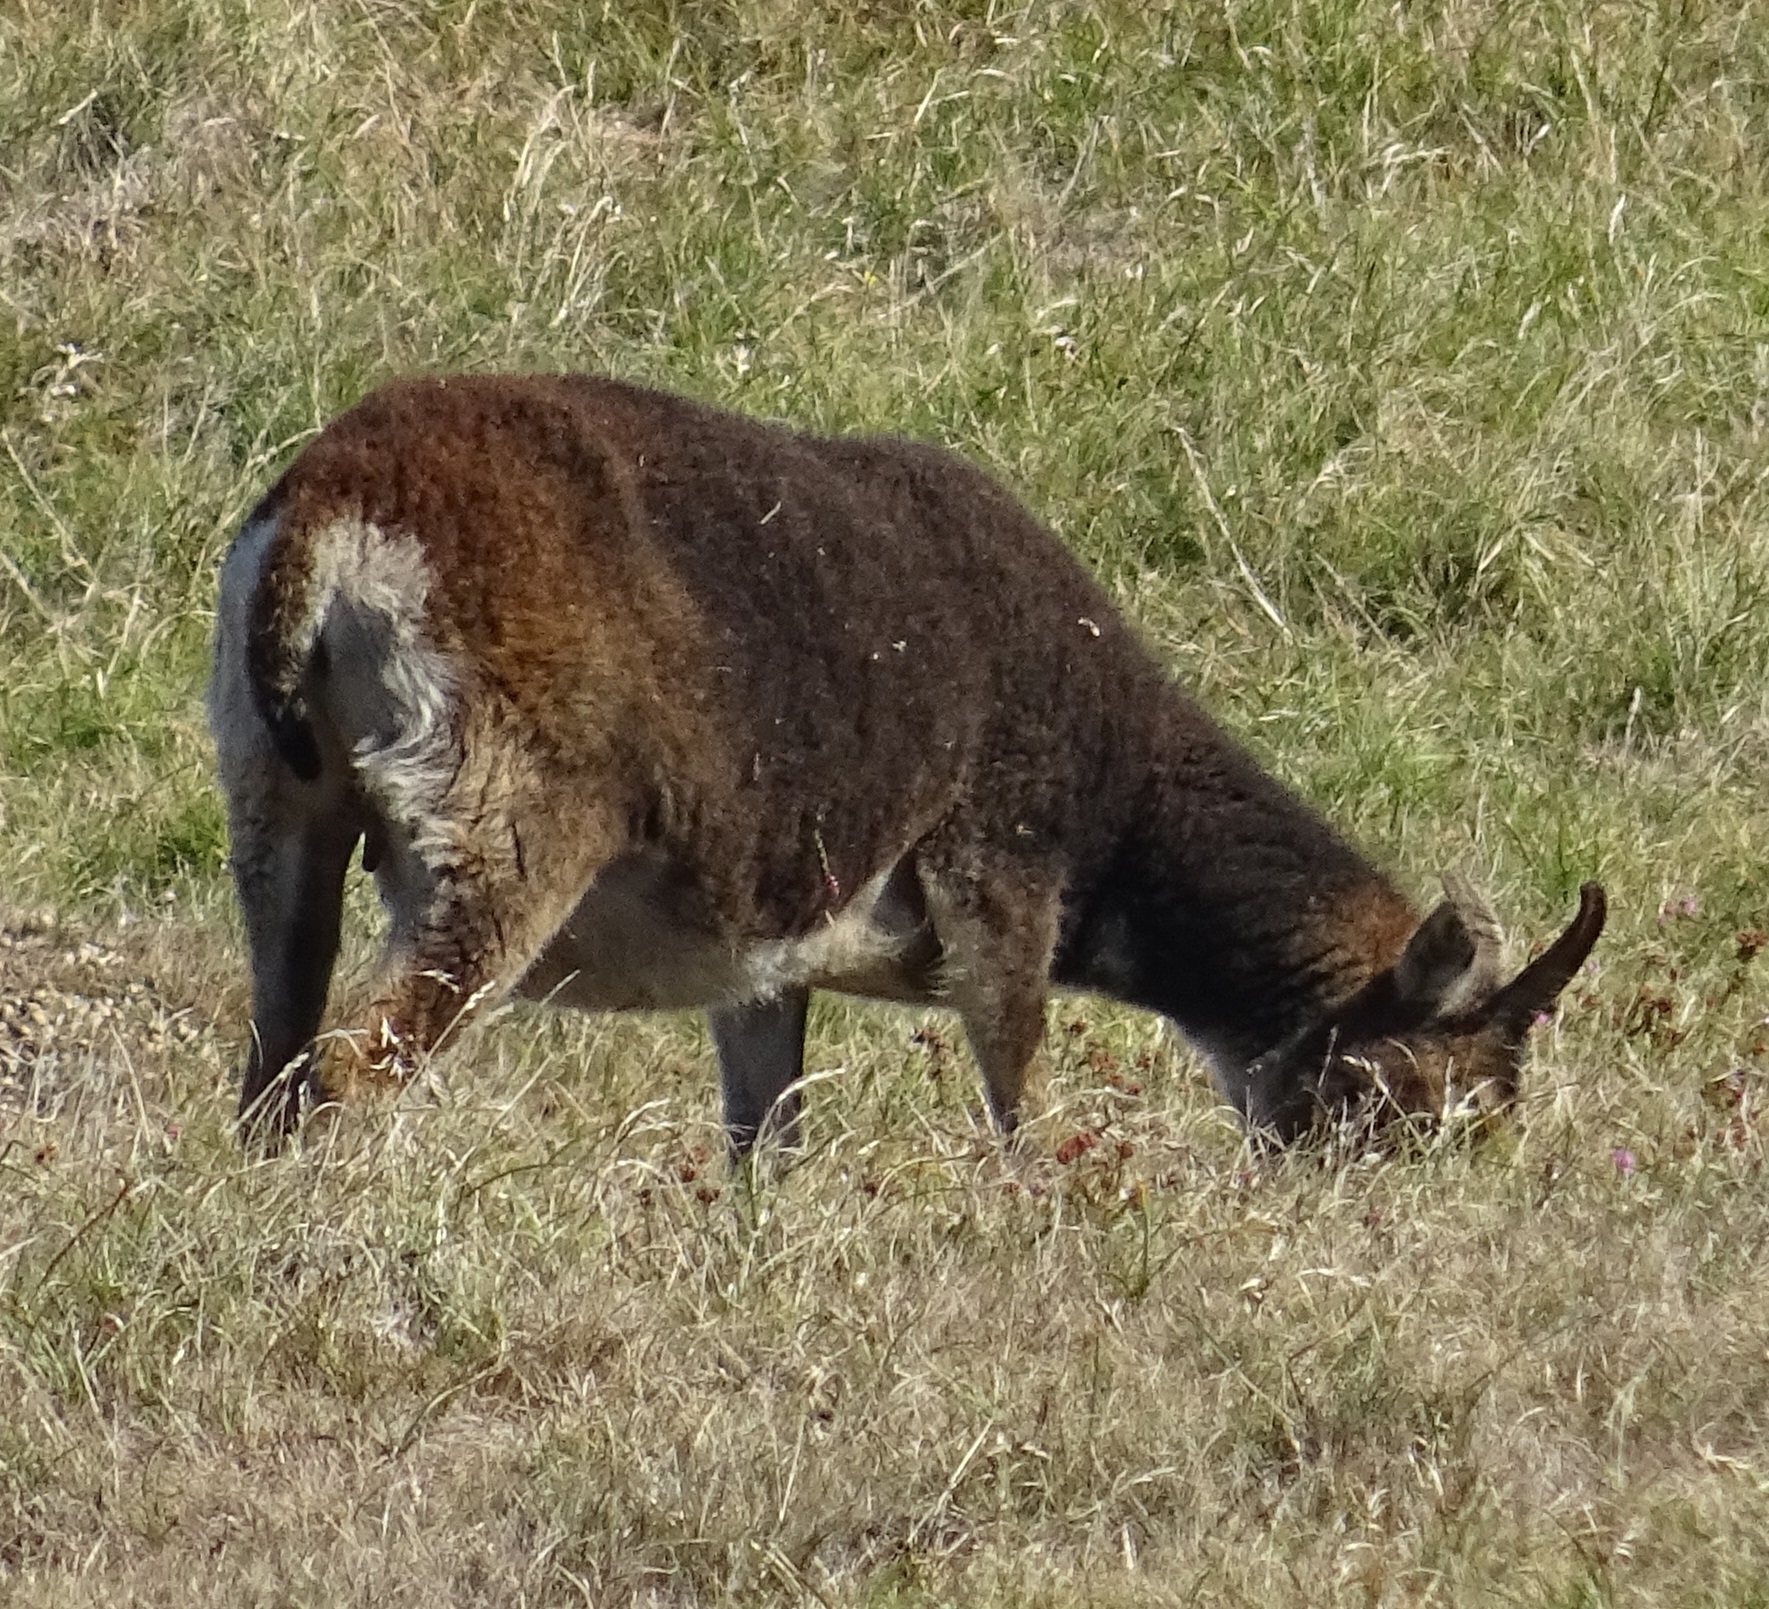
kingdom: Animalia
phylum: Chordata
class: Mammalia
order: Artiodactyla
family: Bovidae
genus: Ovis
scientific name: Ovis aries
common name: Domestic sheep
